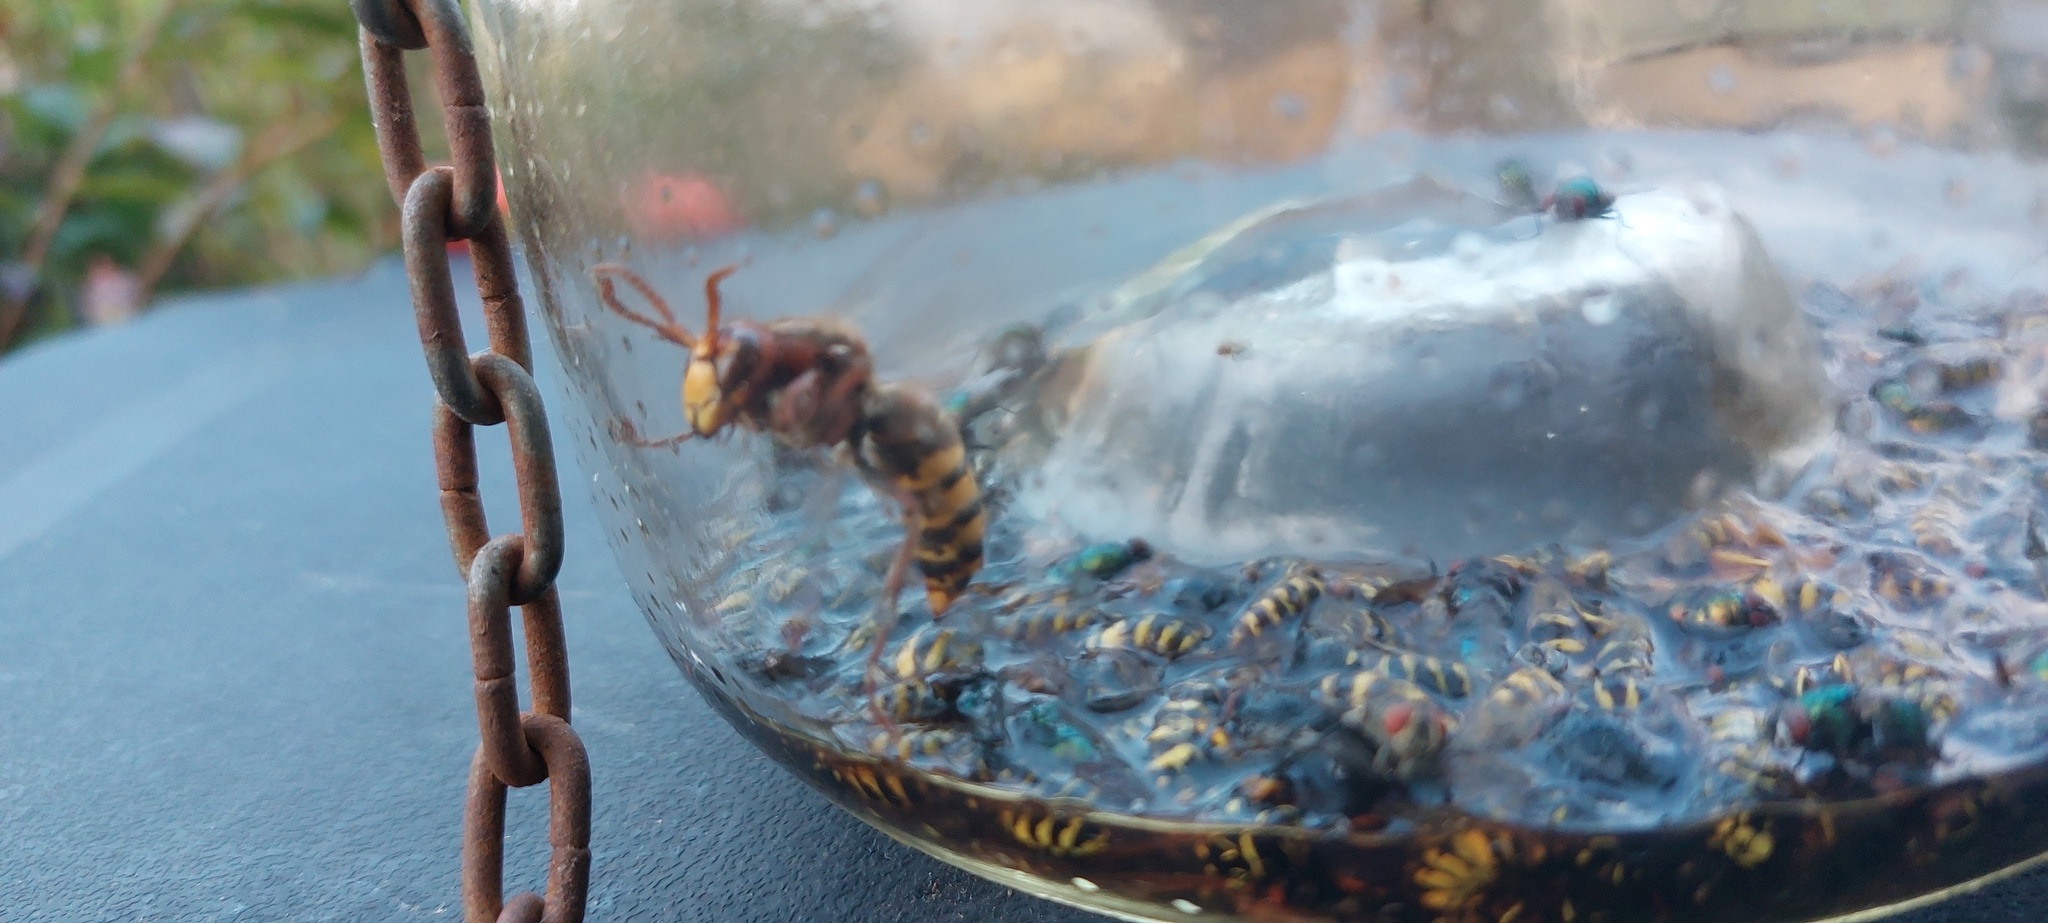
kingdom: Animalia
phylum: Arthropoda
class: Insecta
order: Hymenoptera
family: Vespidae
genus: Vespa
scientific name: Vespa crabro
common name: Hornet
